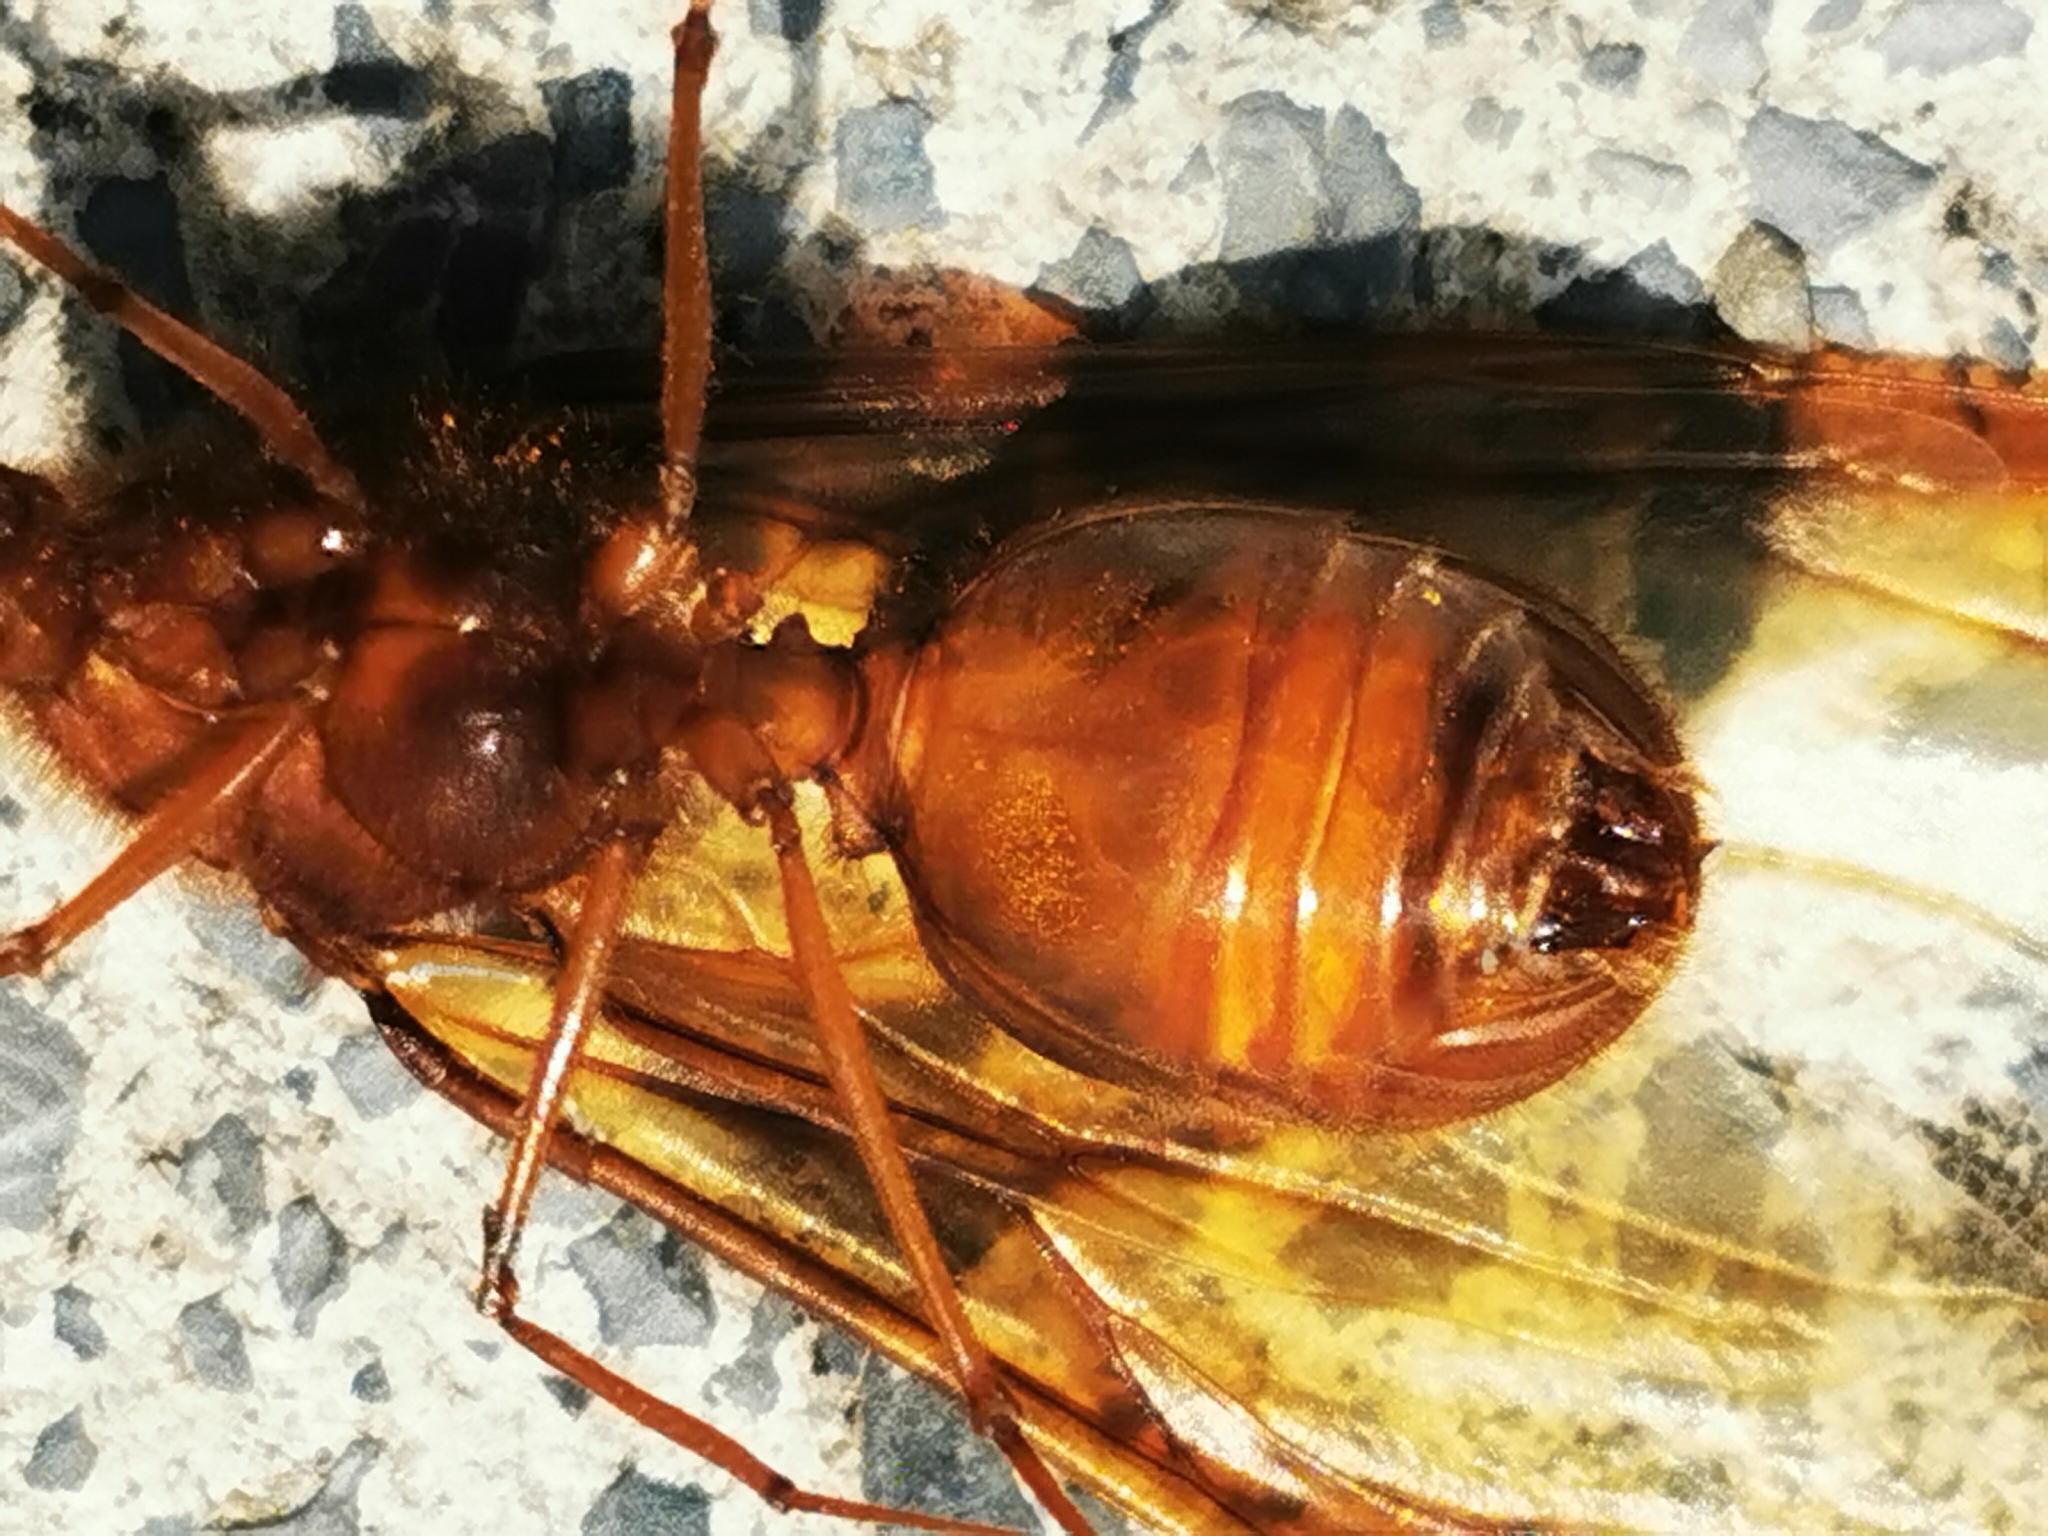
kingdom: Animalia
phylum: Arthropoda
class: Insecta
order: Hymenoptera
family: Formicidae
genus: Atta
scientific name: Atta mexicana
